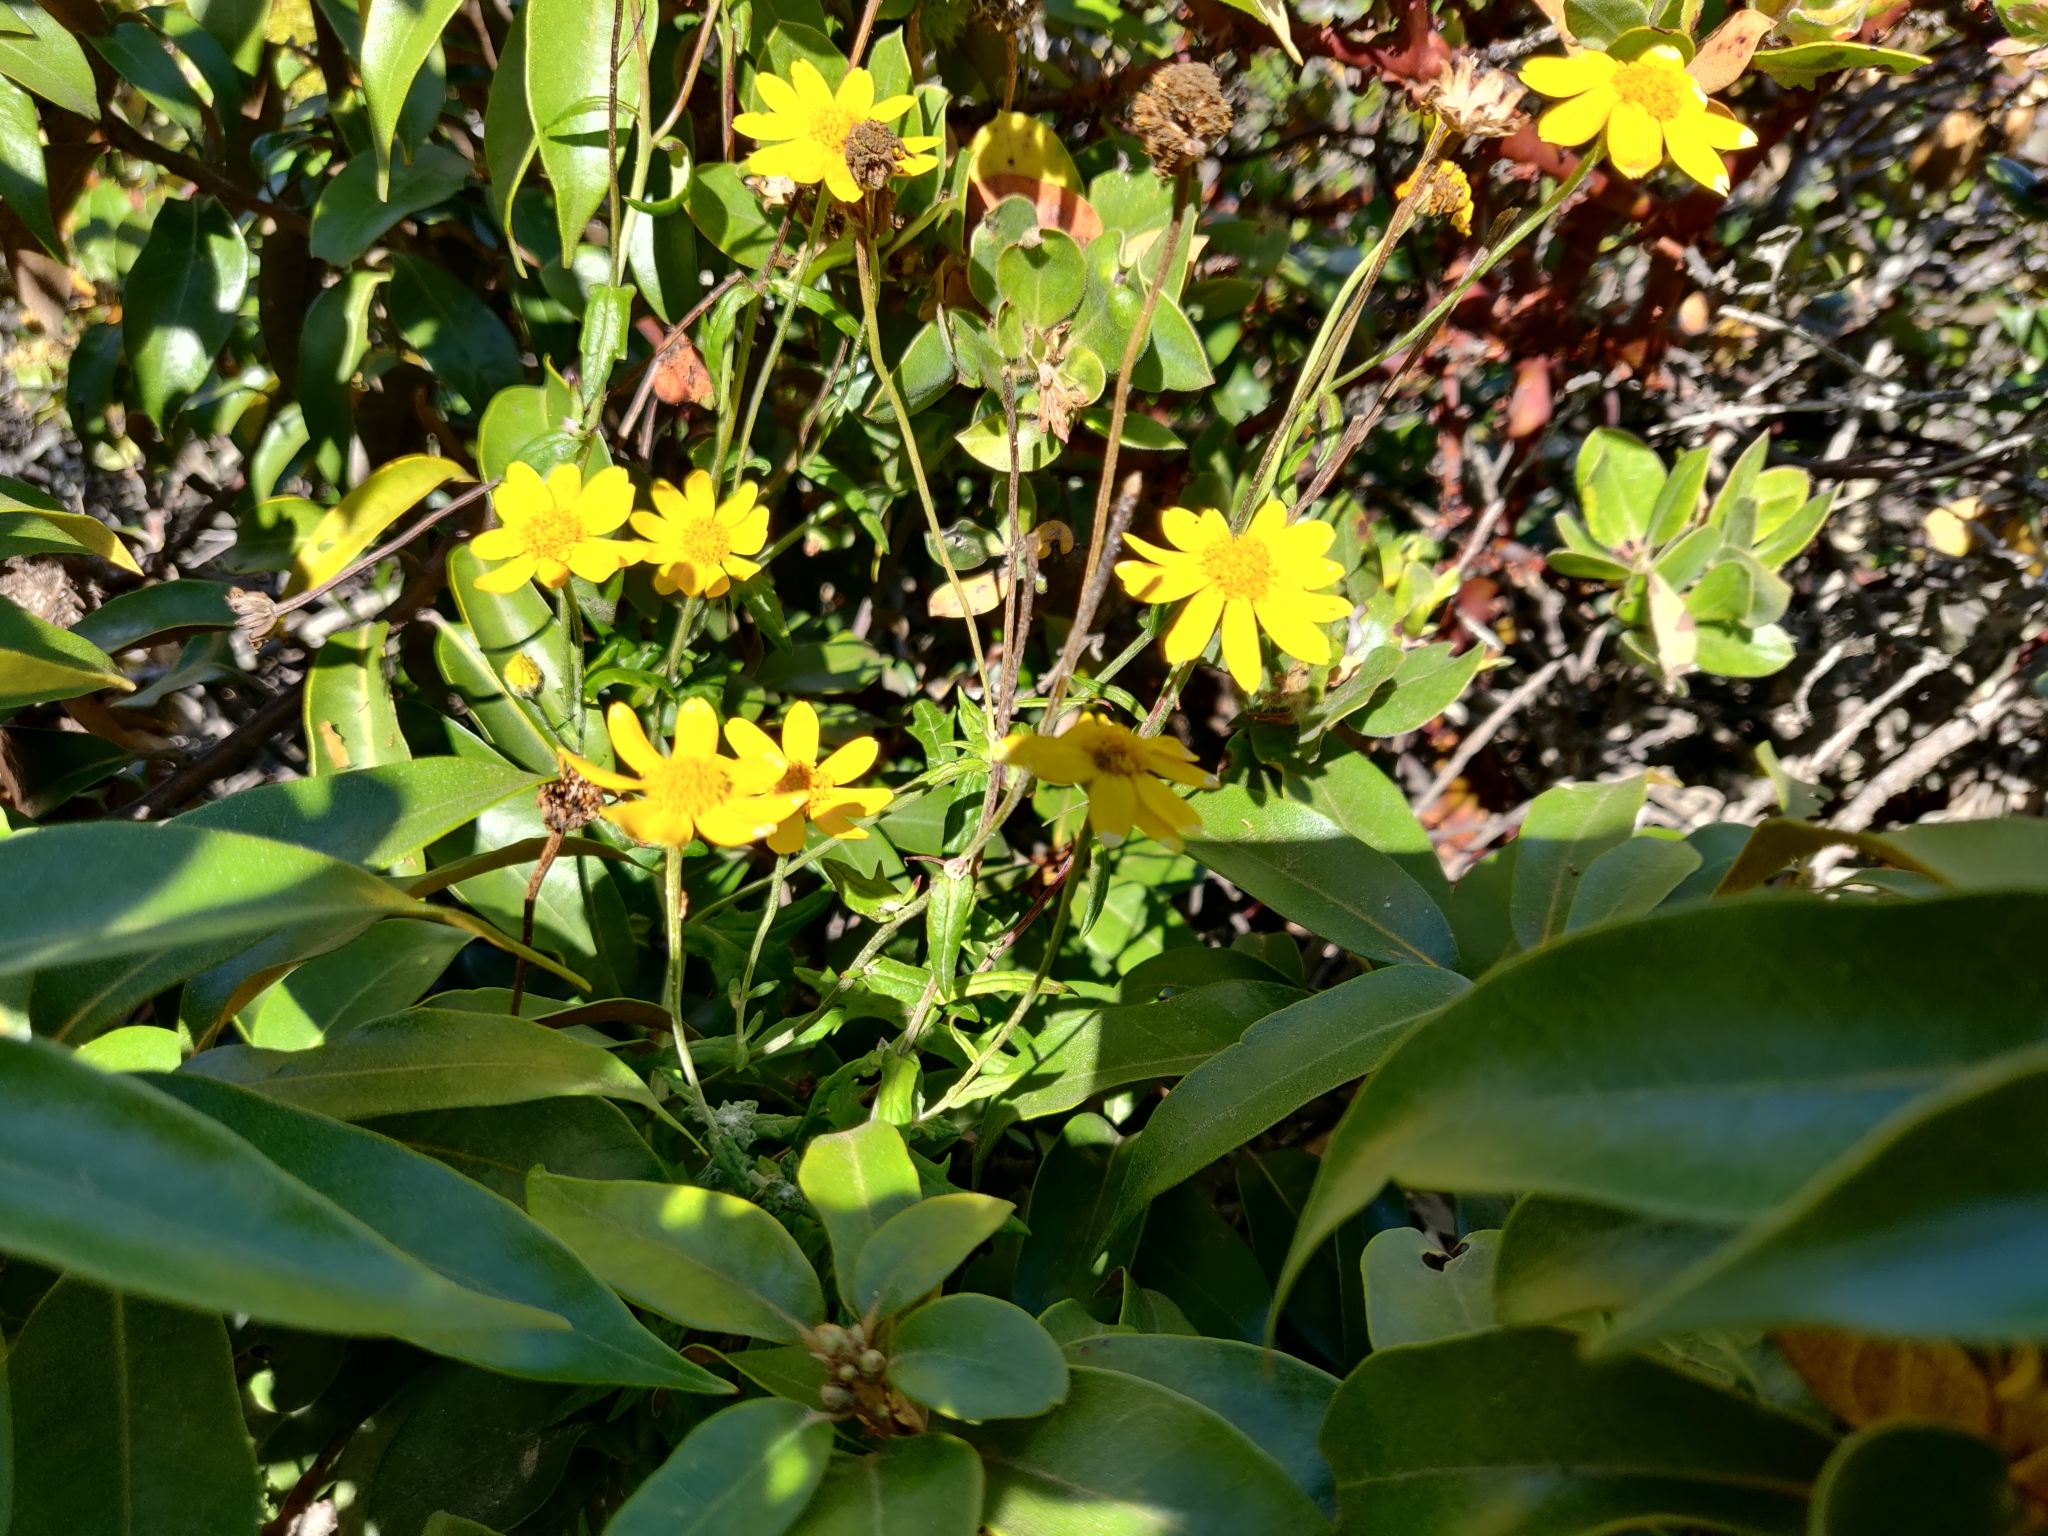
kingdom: Plantae
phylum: Tracheophyta
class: Magnoliopsida
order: Asterales
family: Asteraceae
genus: Eriophyllum
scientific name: Eriophyllum lanatum
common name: Common woolly-sunflower
